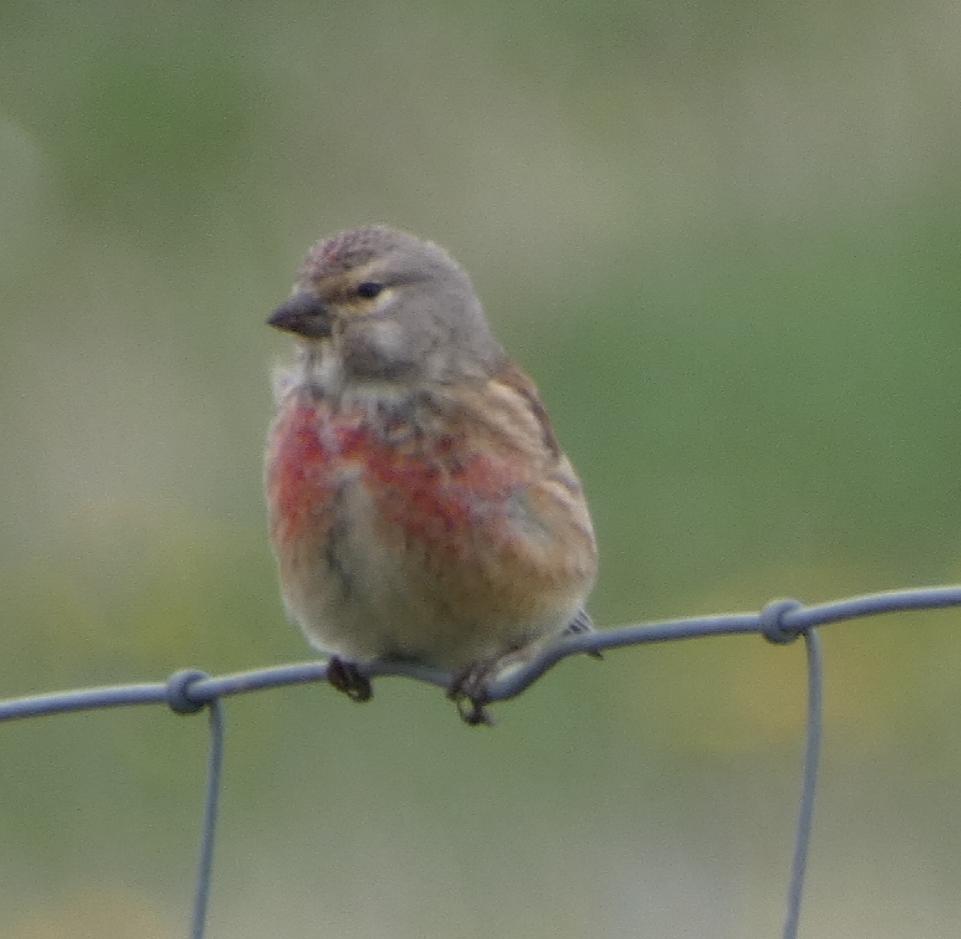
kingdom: Animalia
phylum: Chordata
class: Aves
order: Passeriformes
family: Fringillidae
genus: Linaria
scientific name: Linaria cannabina
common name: Common linnet
